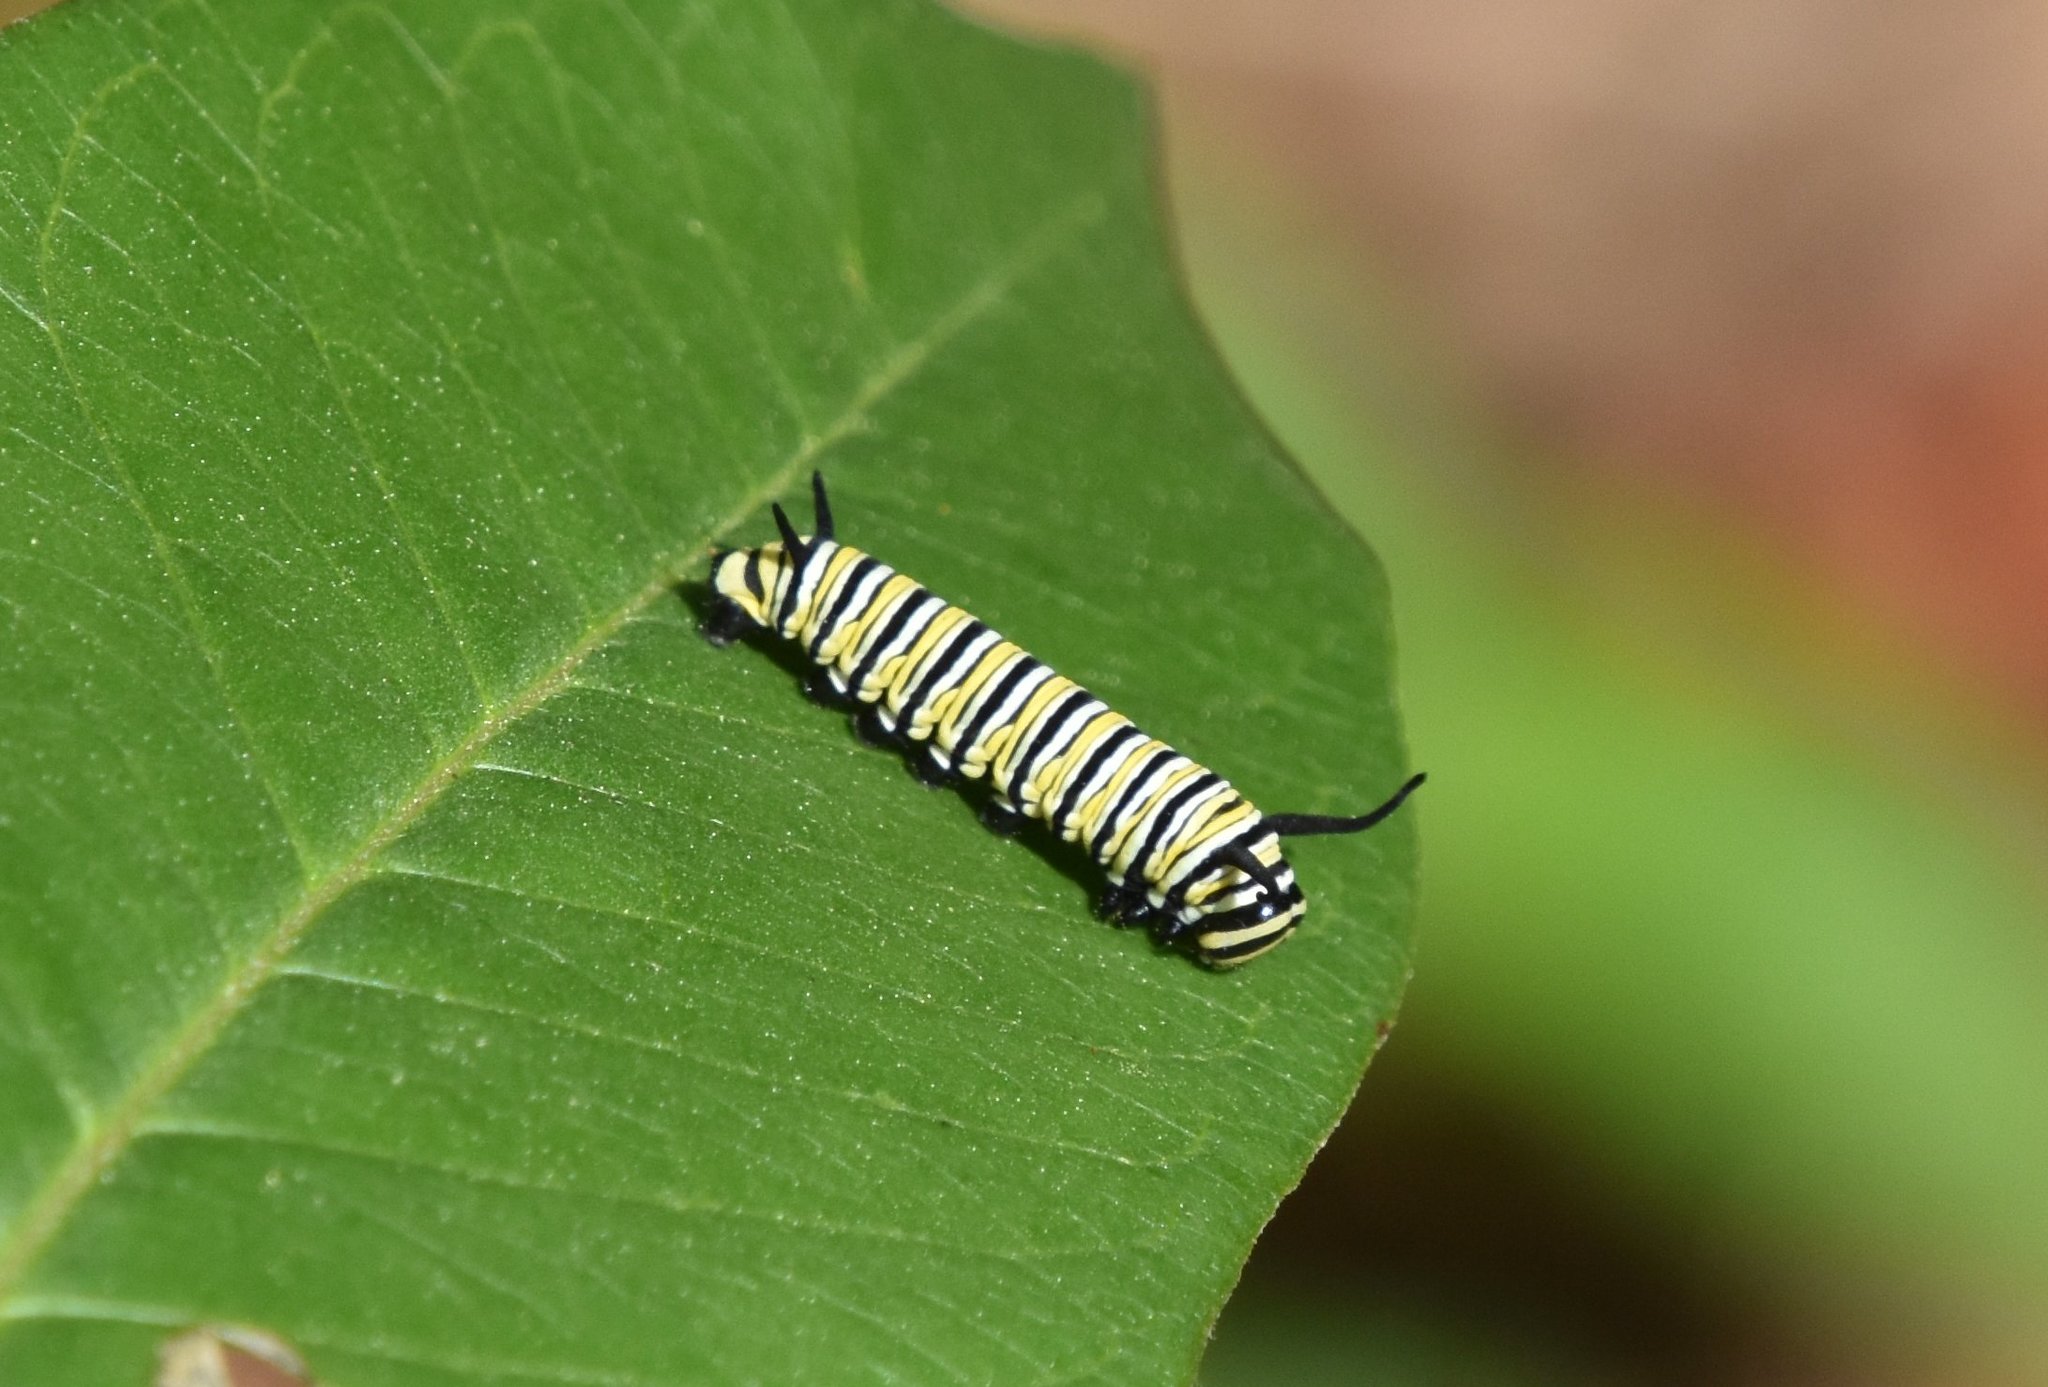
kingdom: Animalia
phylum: Arthropoda
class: Insecta
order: Lepidoptera
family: Nymphalidae
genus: Danaus
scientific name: Danaus plexippus
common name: Monarch
